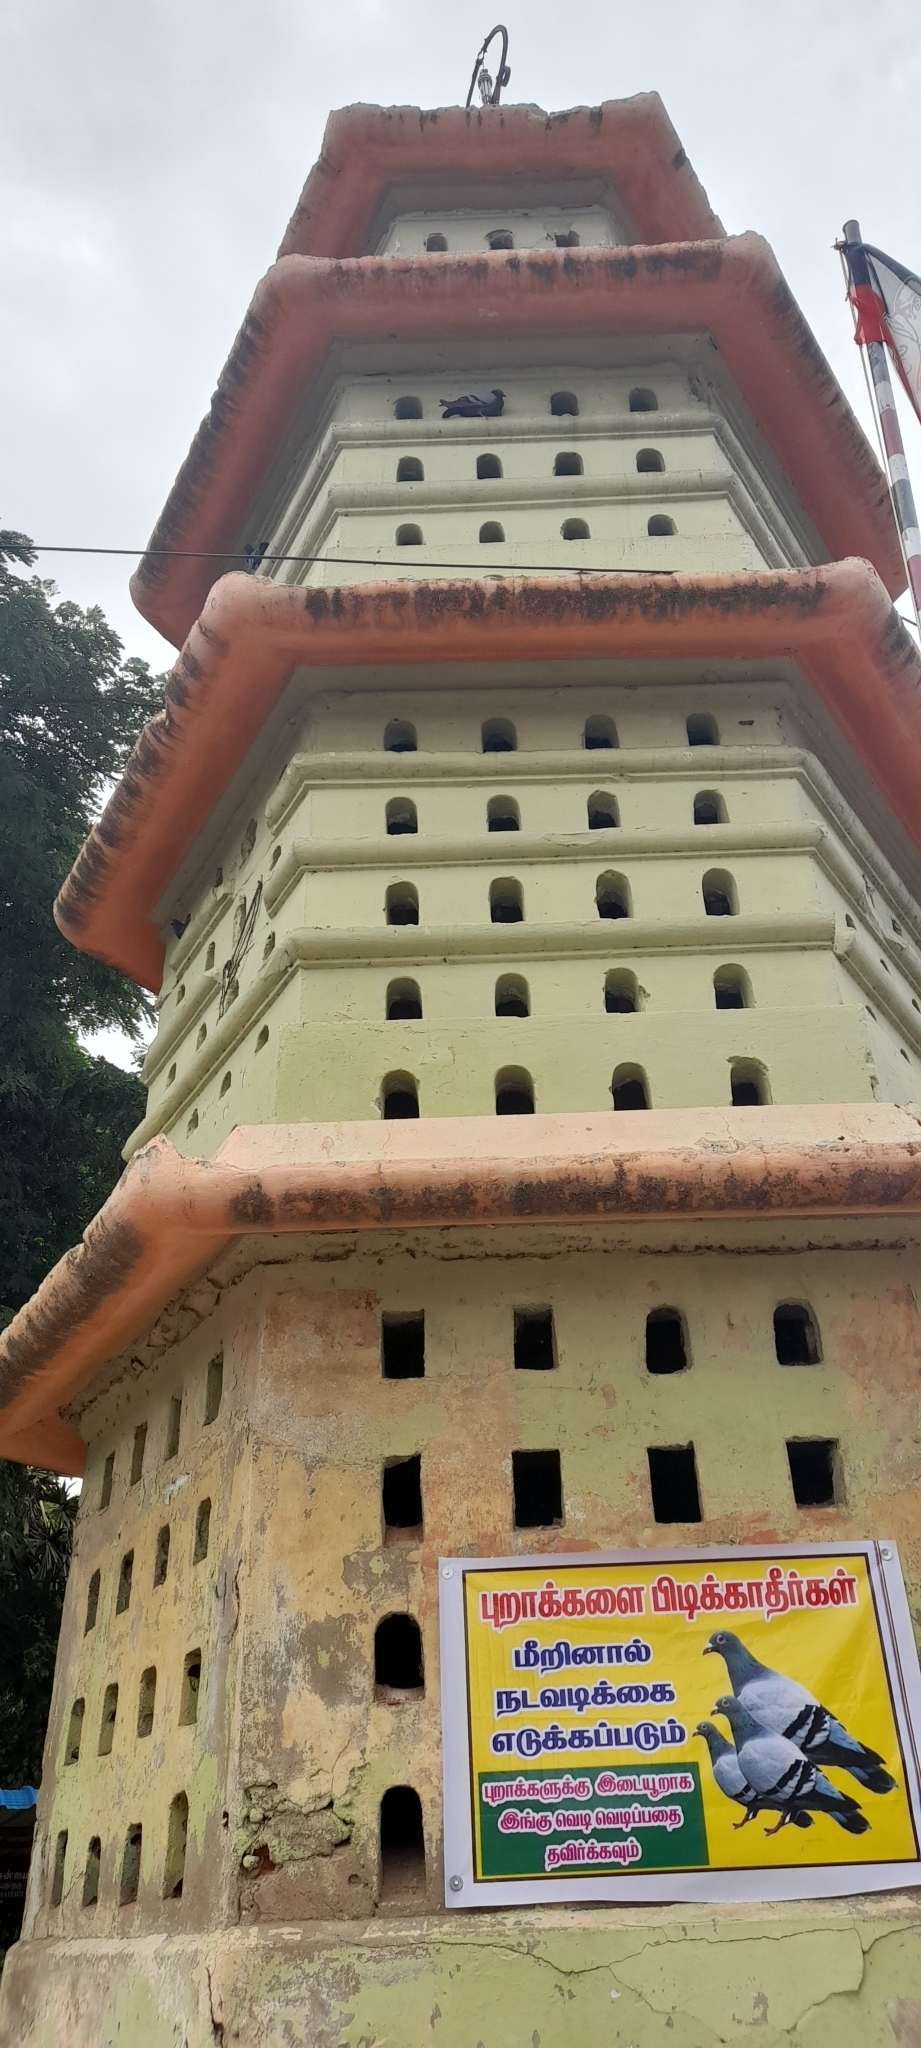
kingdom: Animalia
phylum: Chordata
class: Aves
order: Columbiformes
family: Columbidae
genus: Columba
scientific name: Columba livia
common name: Rock pigeon
